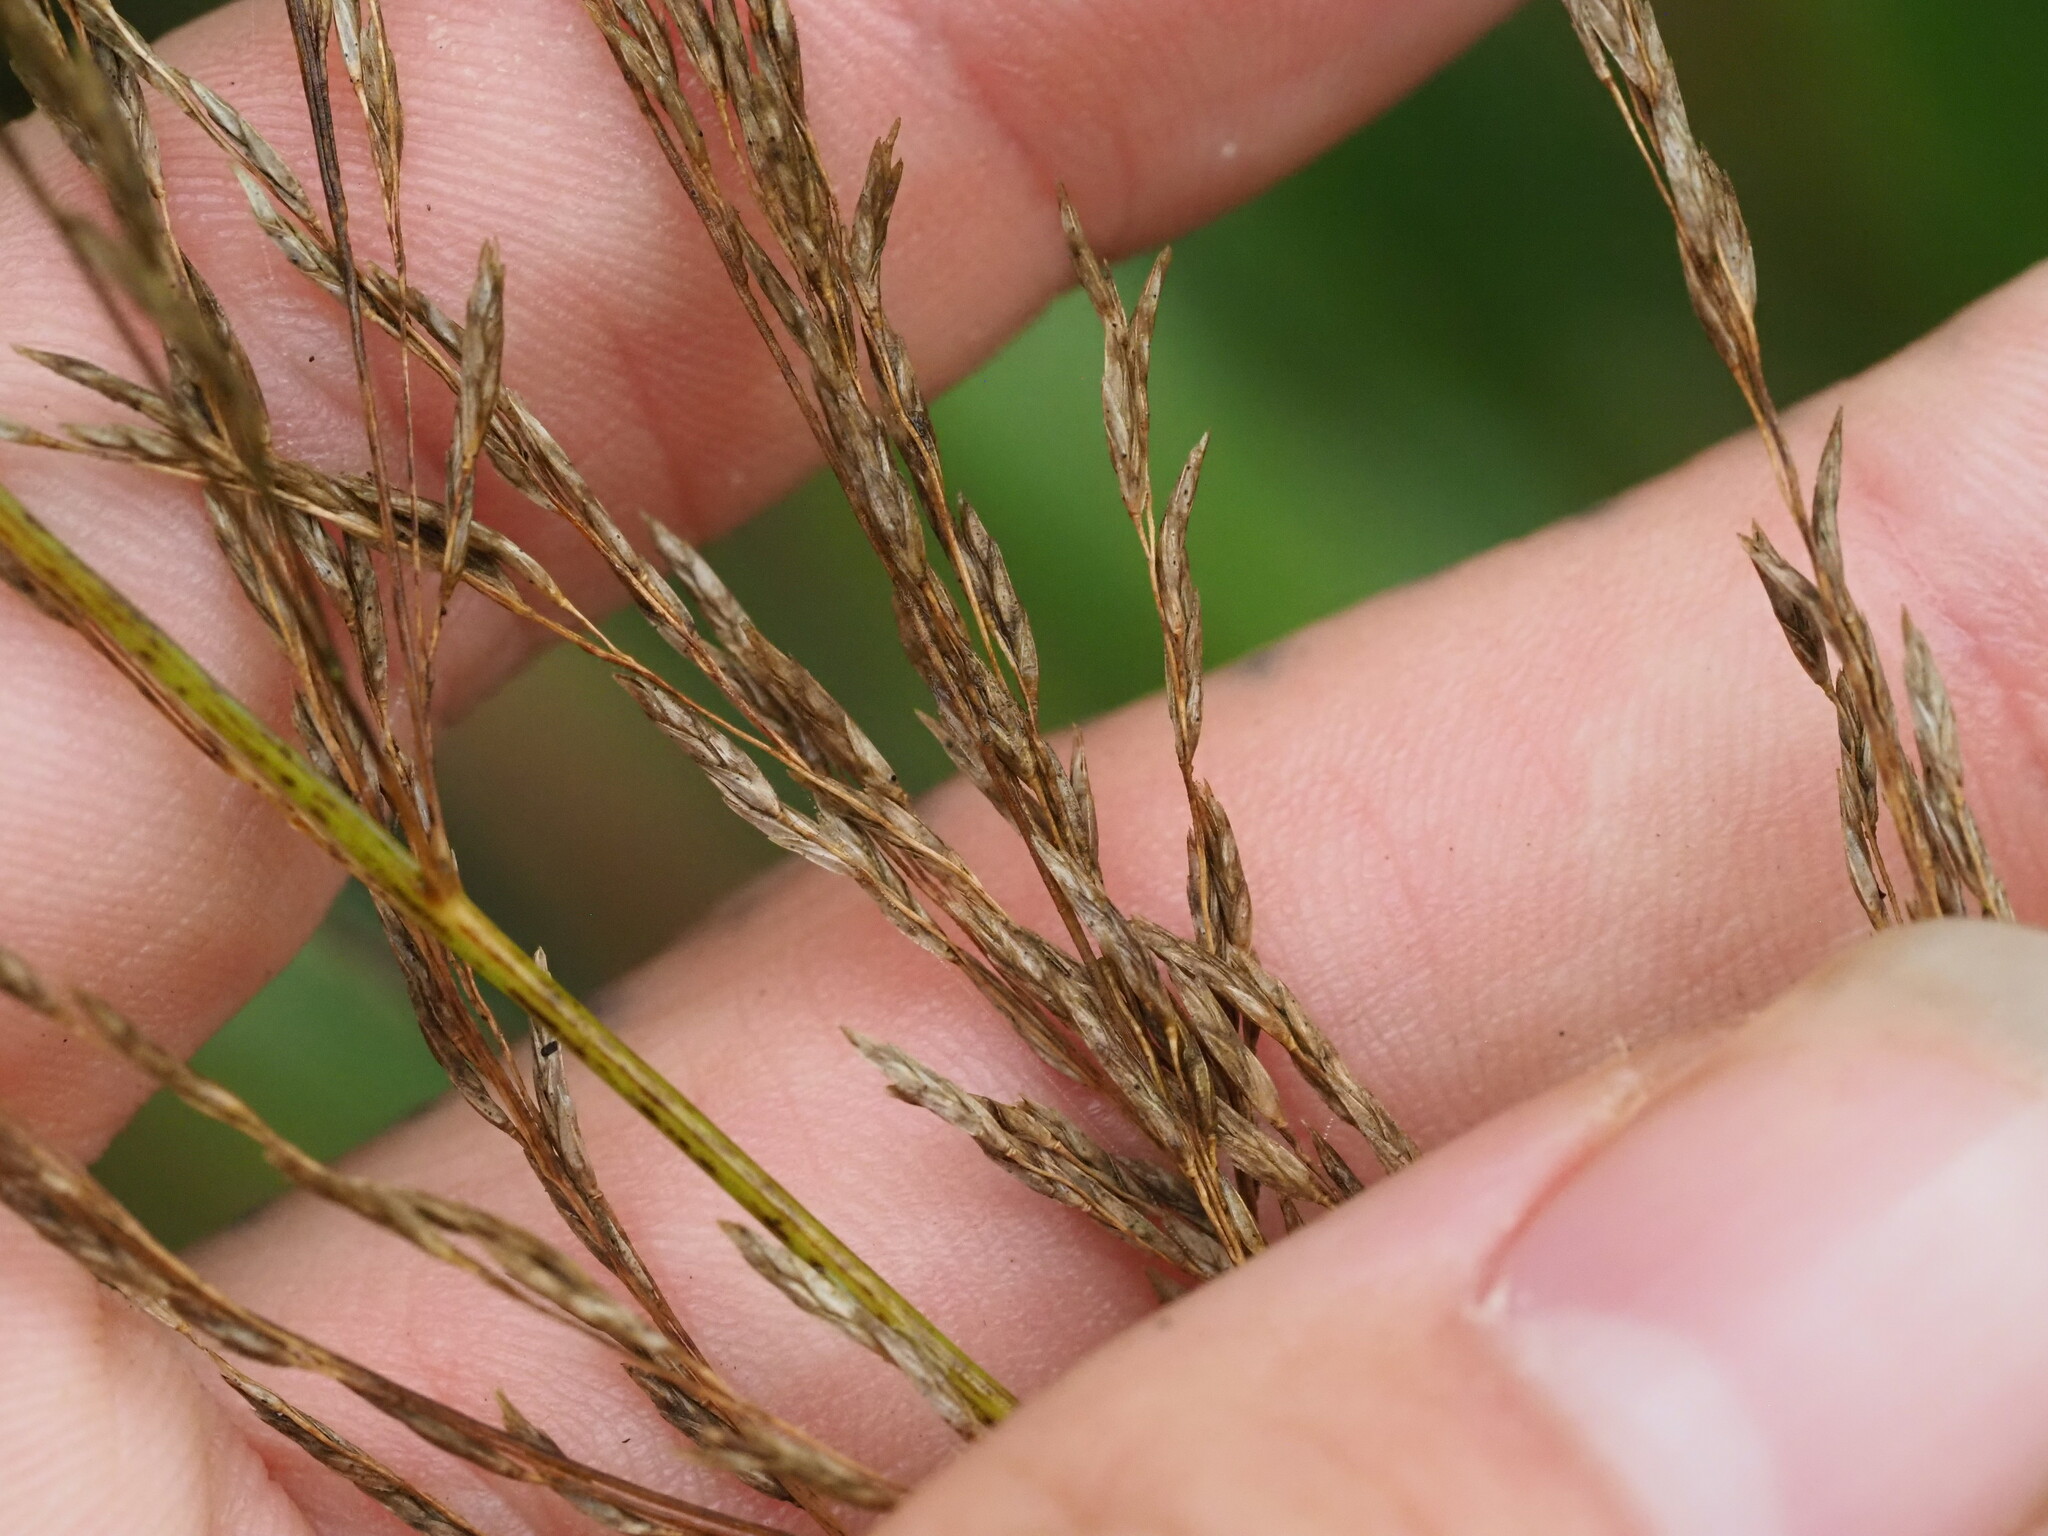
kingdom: Plantae
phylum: Tracheophyta
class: Liliopsida
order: Poales
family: Poaceae
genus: Eragrostis
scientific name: Eragrostis grandis
